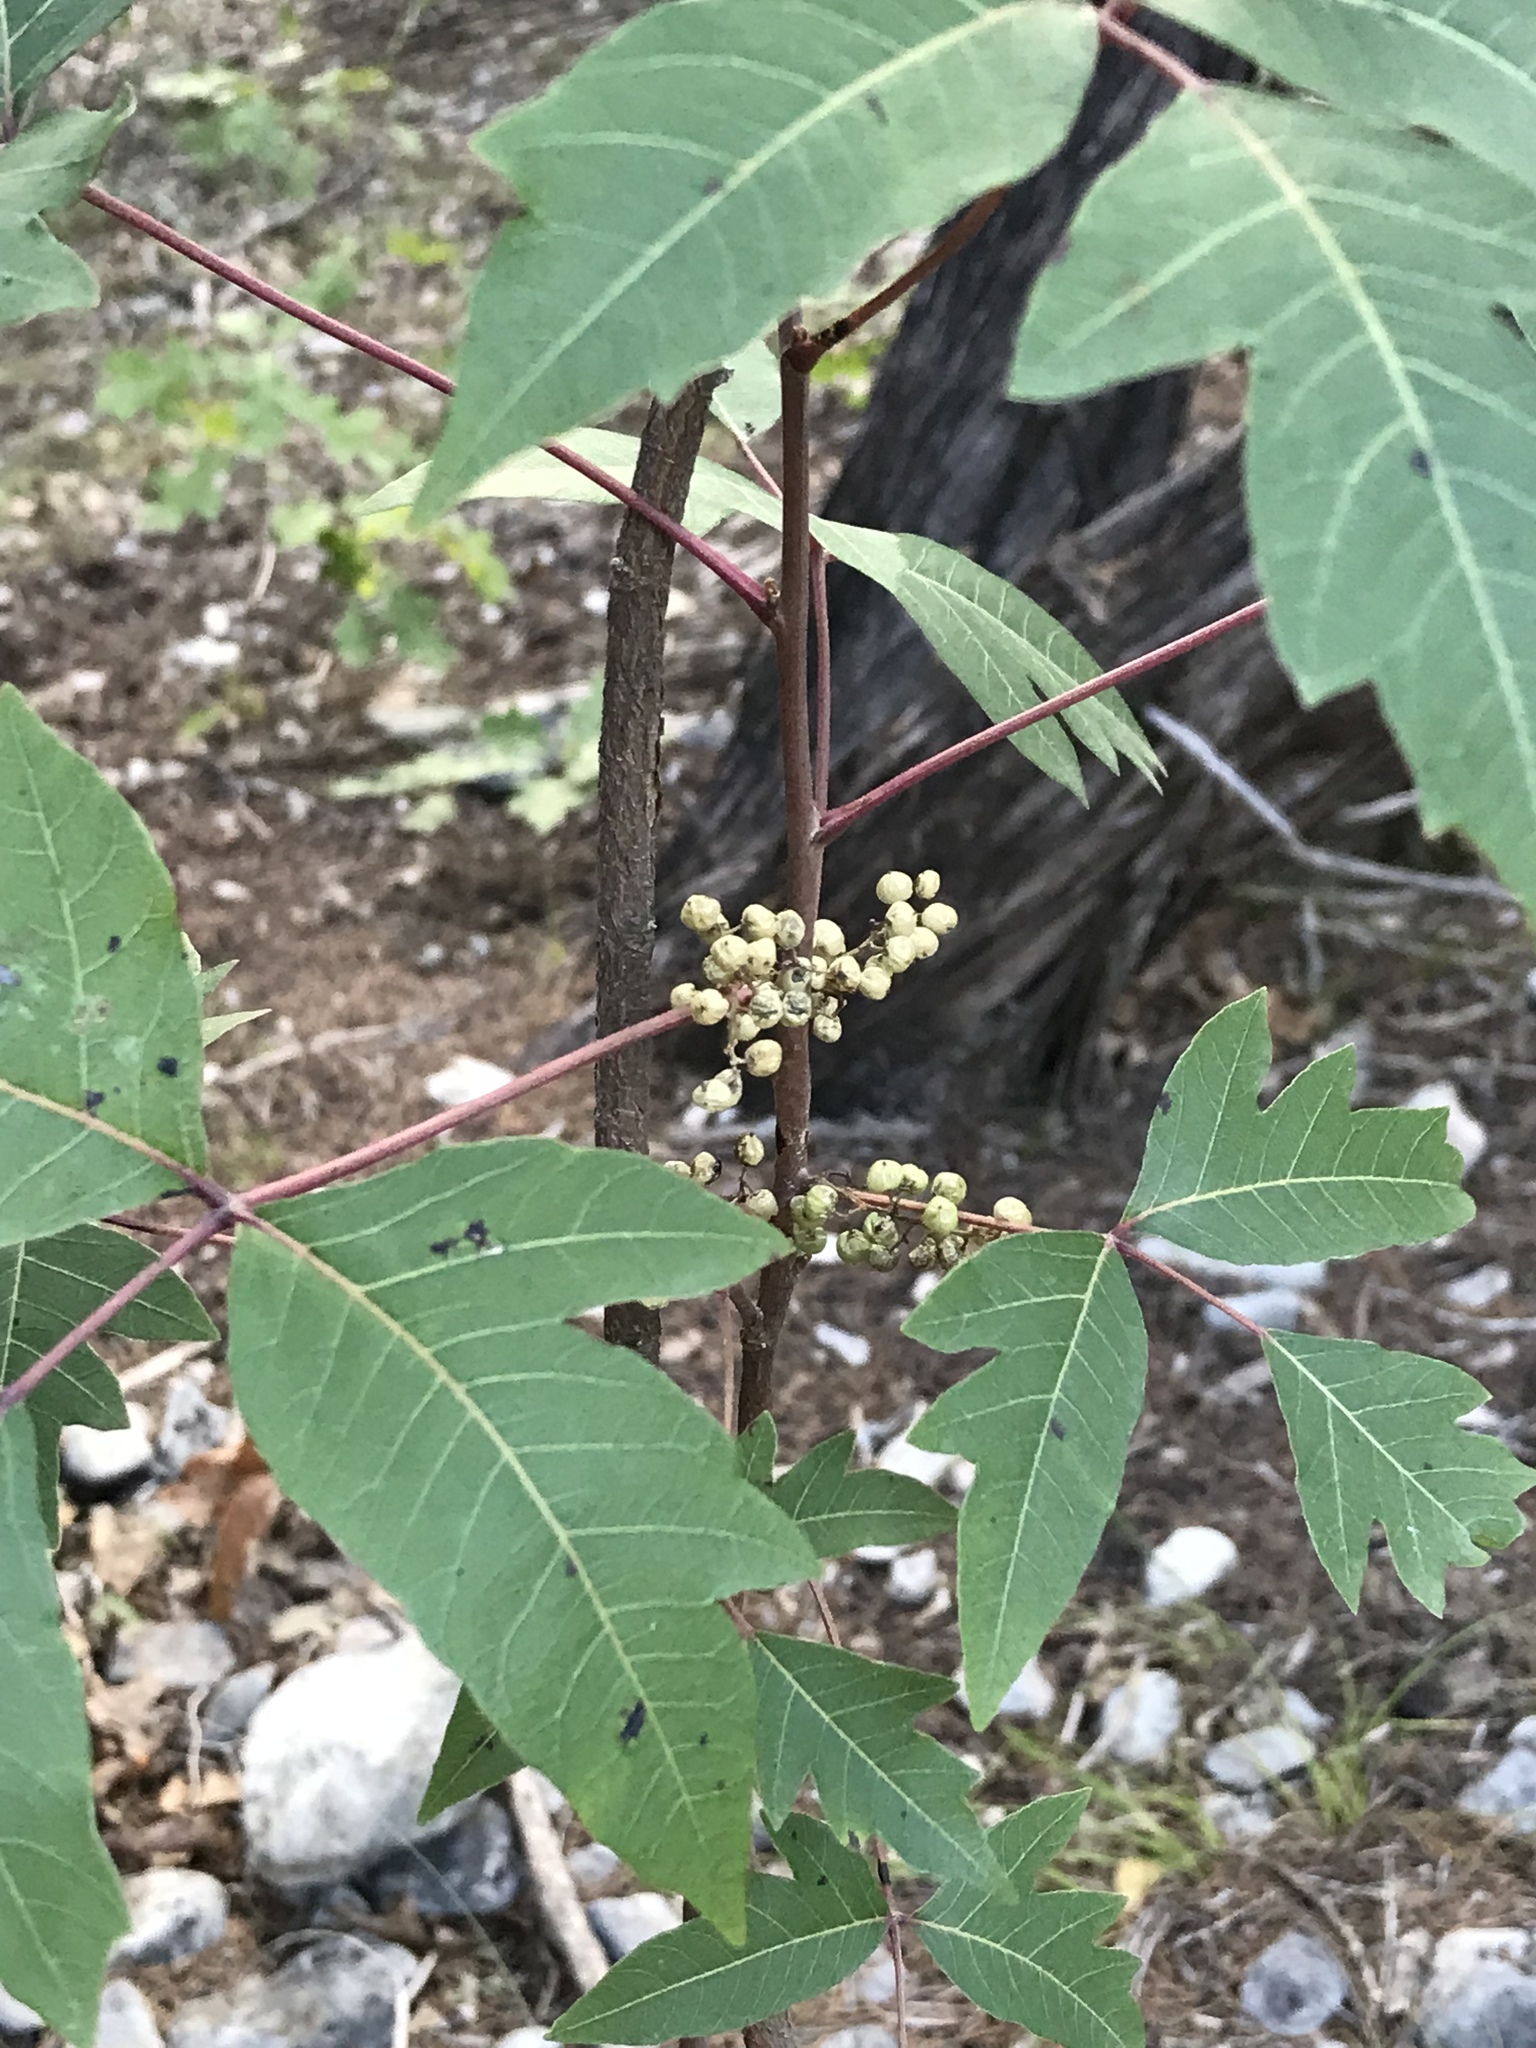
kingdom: Plantae
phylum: Tracheophyta
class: Magnoliopsida
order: Sapindales
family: Anacardiaceae
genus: Toxicodendron
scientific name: Toxicodendron radicans
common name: Poison ivy
